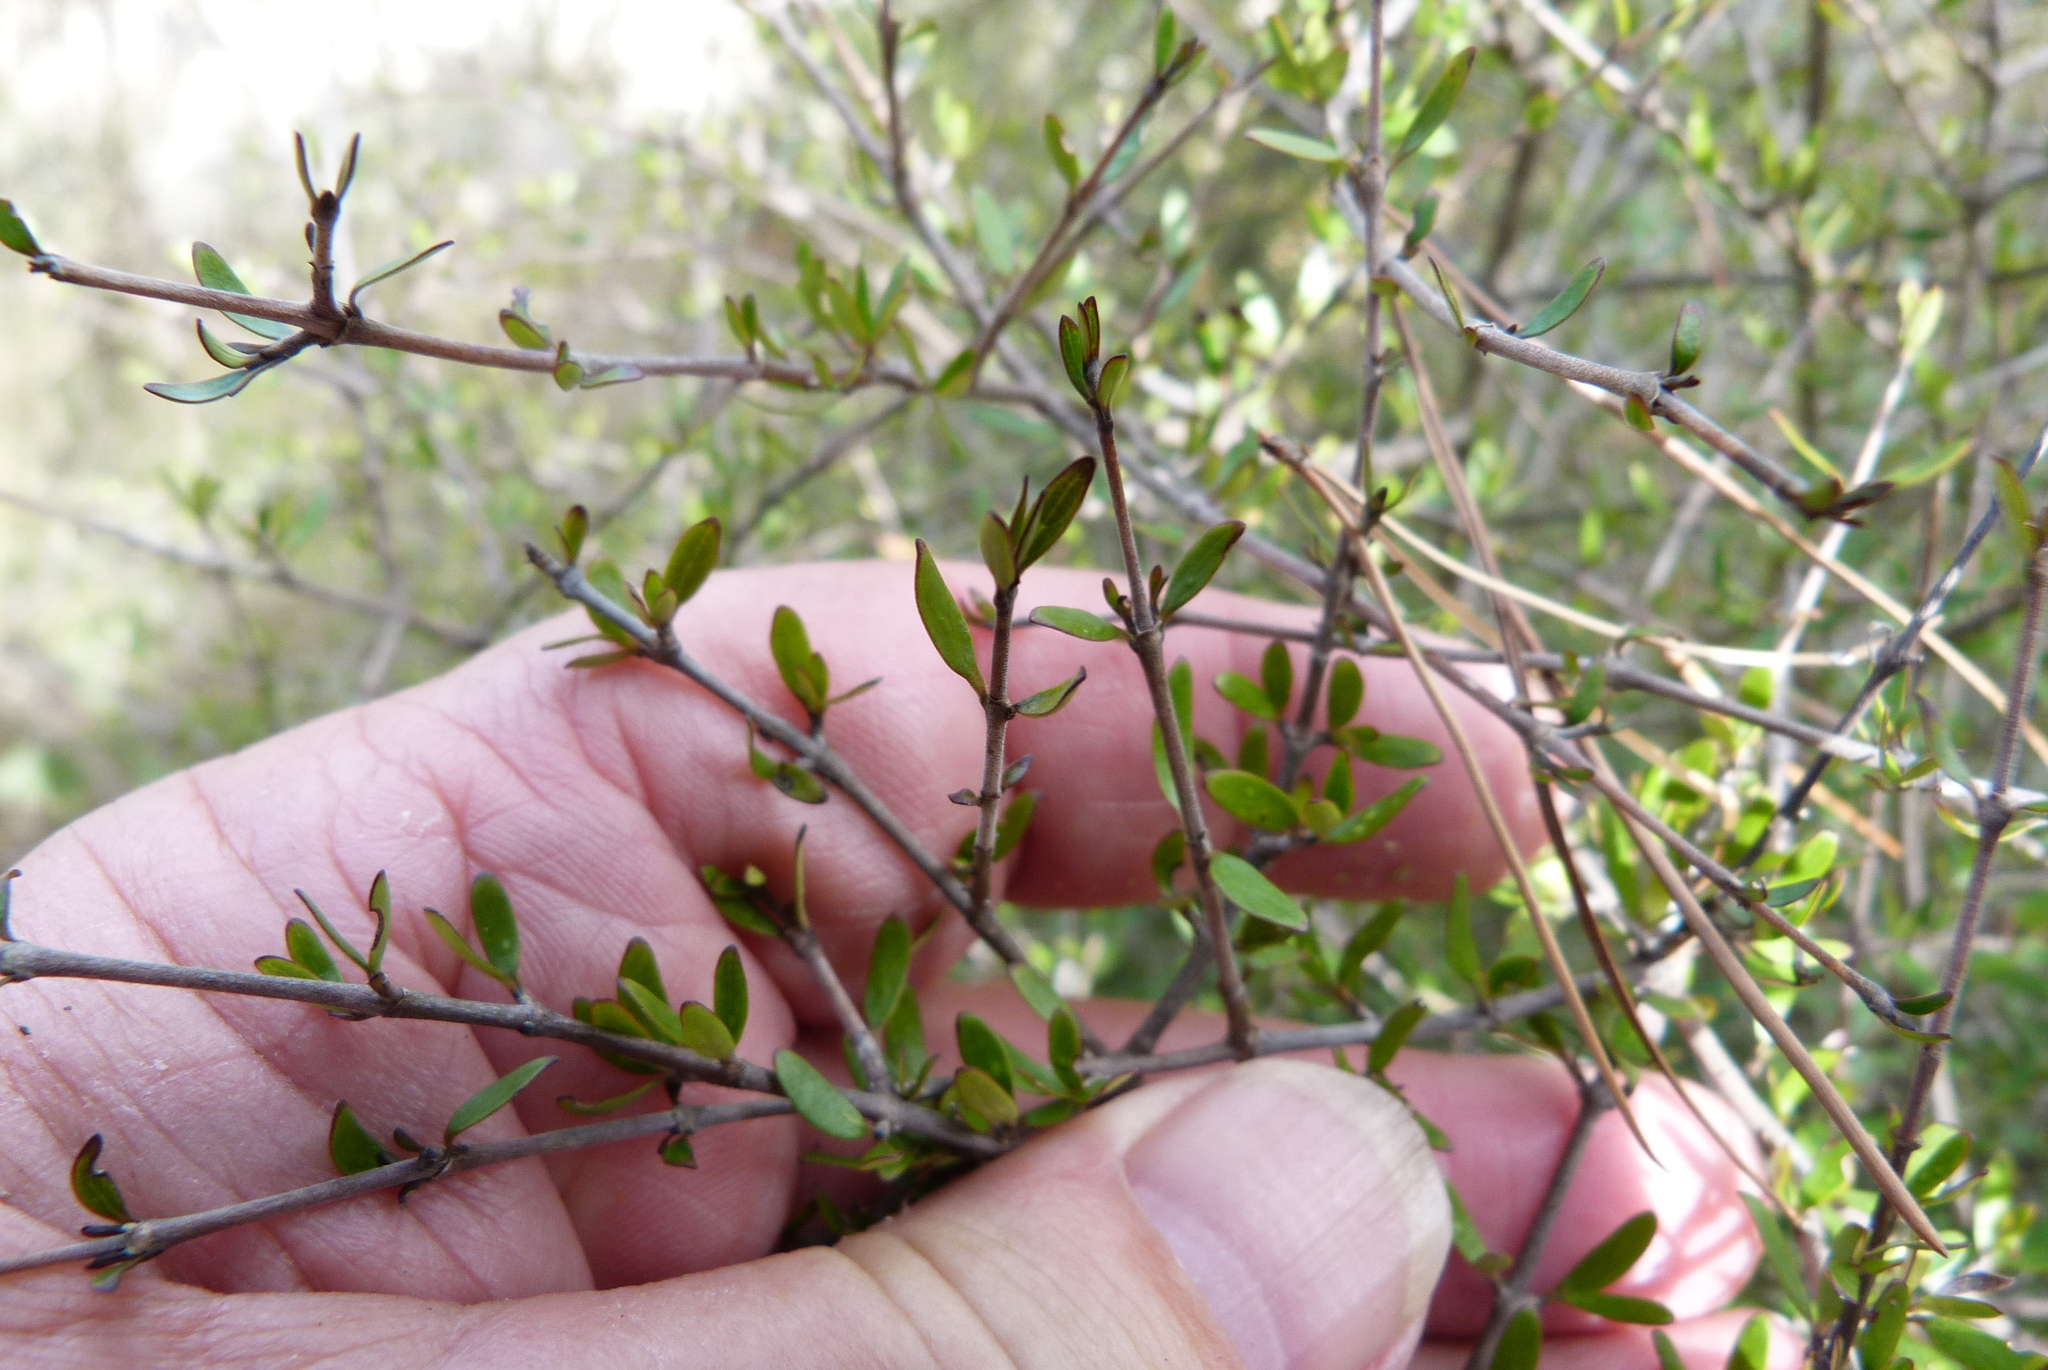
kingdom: Plantae
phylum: Tracheophyta
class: Magnoliopsida
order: Gentianales
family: Rubiaceae
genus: Coprosma
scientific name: Coprosma propinqua
